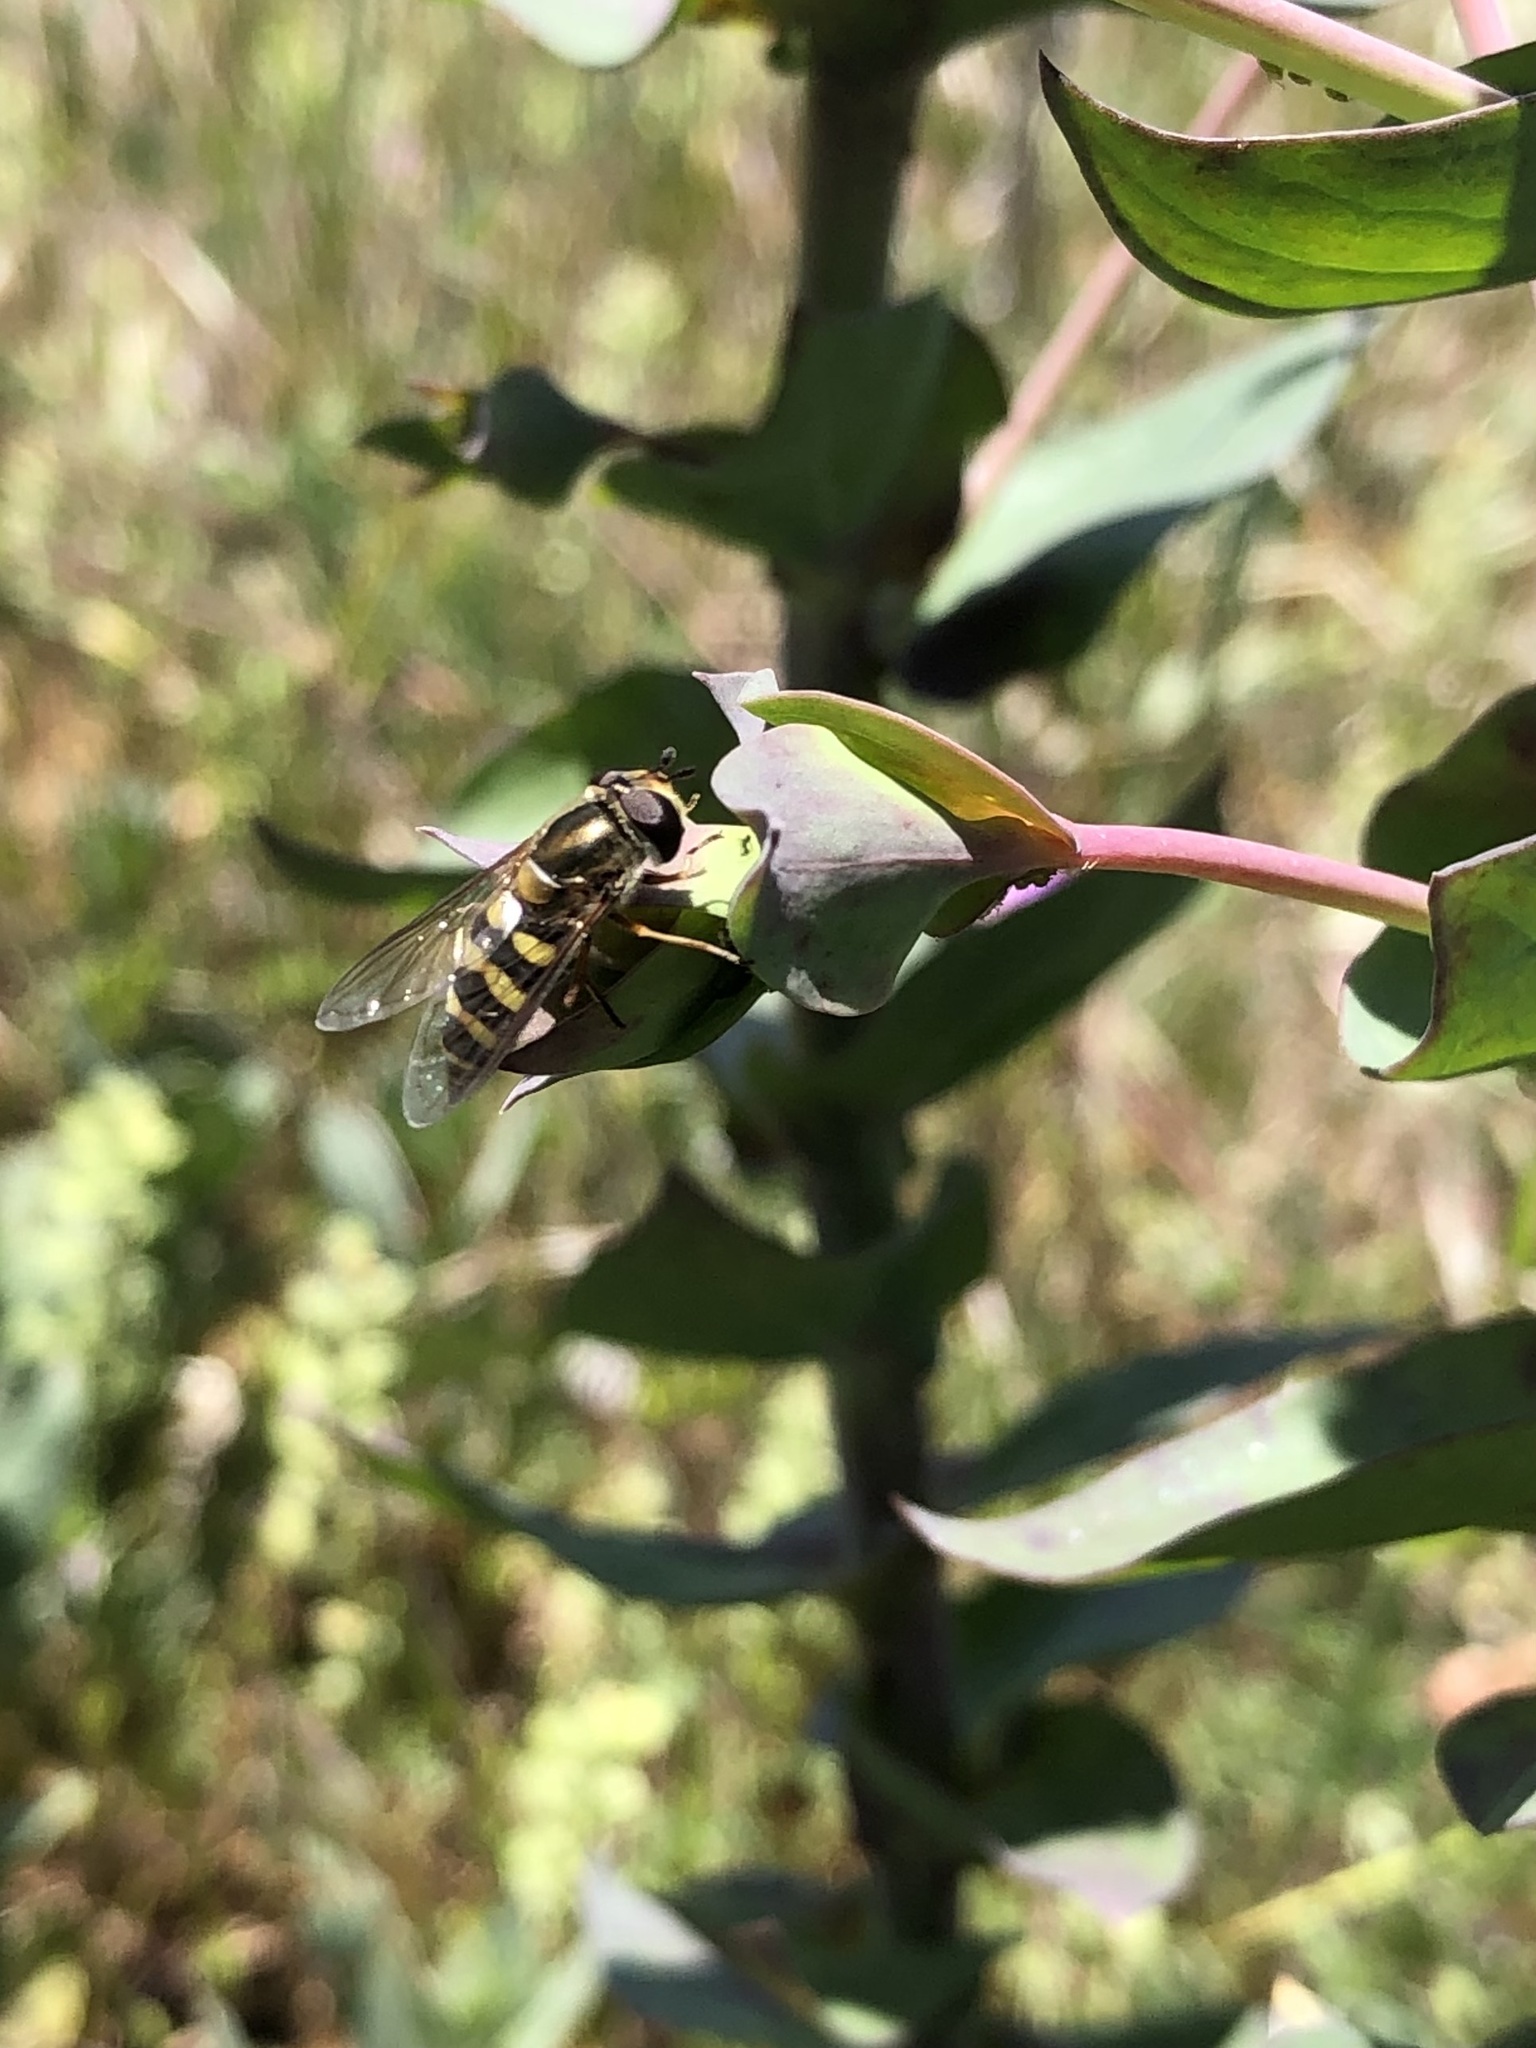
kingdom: Animalia
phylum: Arthropoda
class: Insecta
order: Diptera
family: Syrphidae
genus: Eupeodes
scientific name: Eupeodes fumipennis
